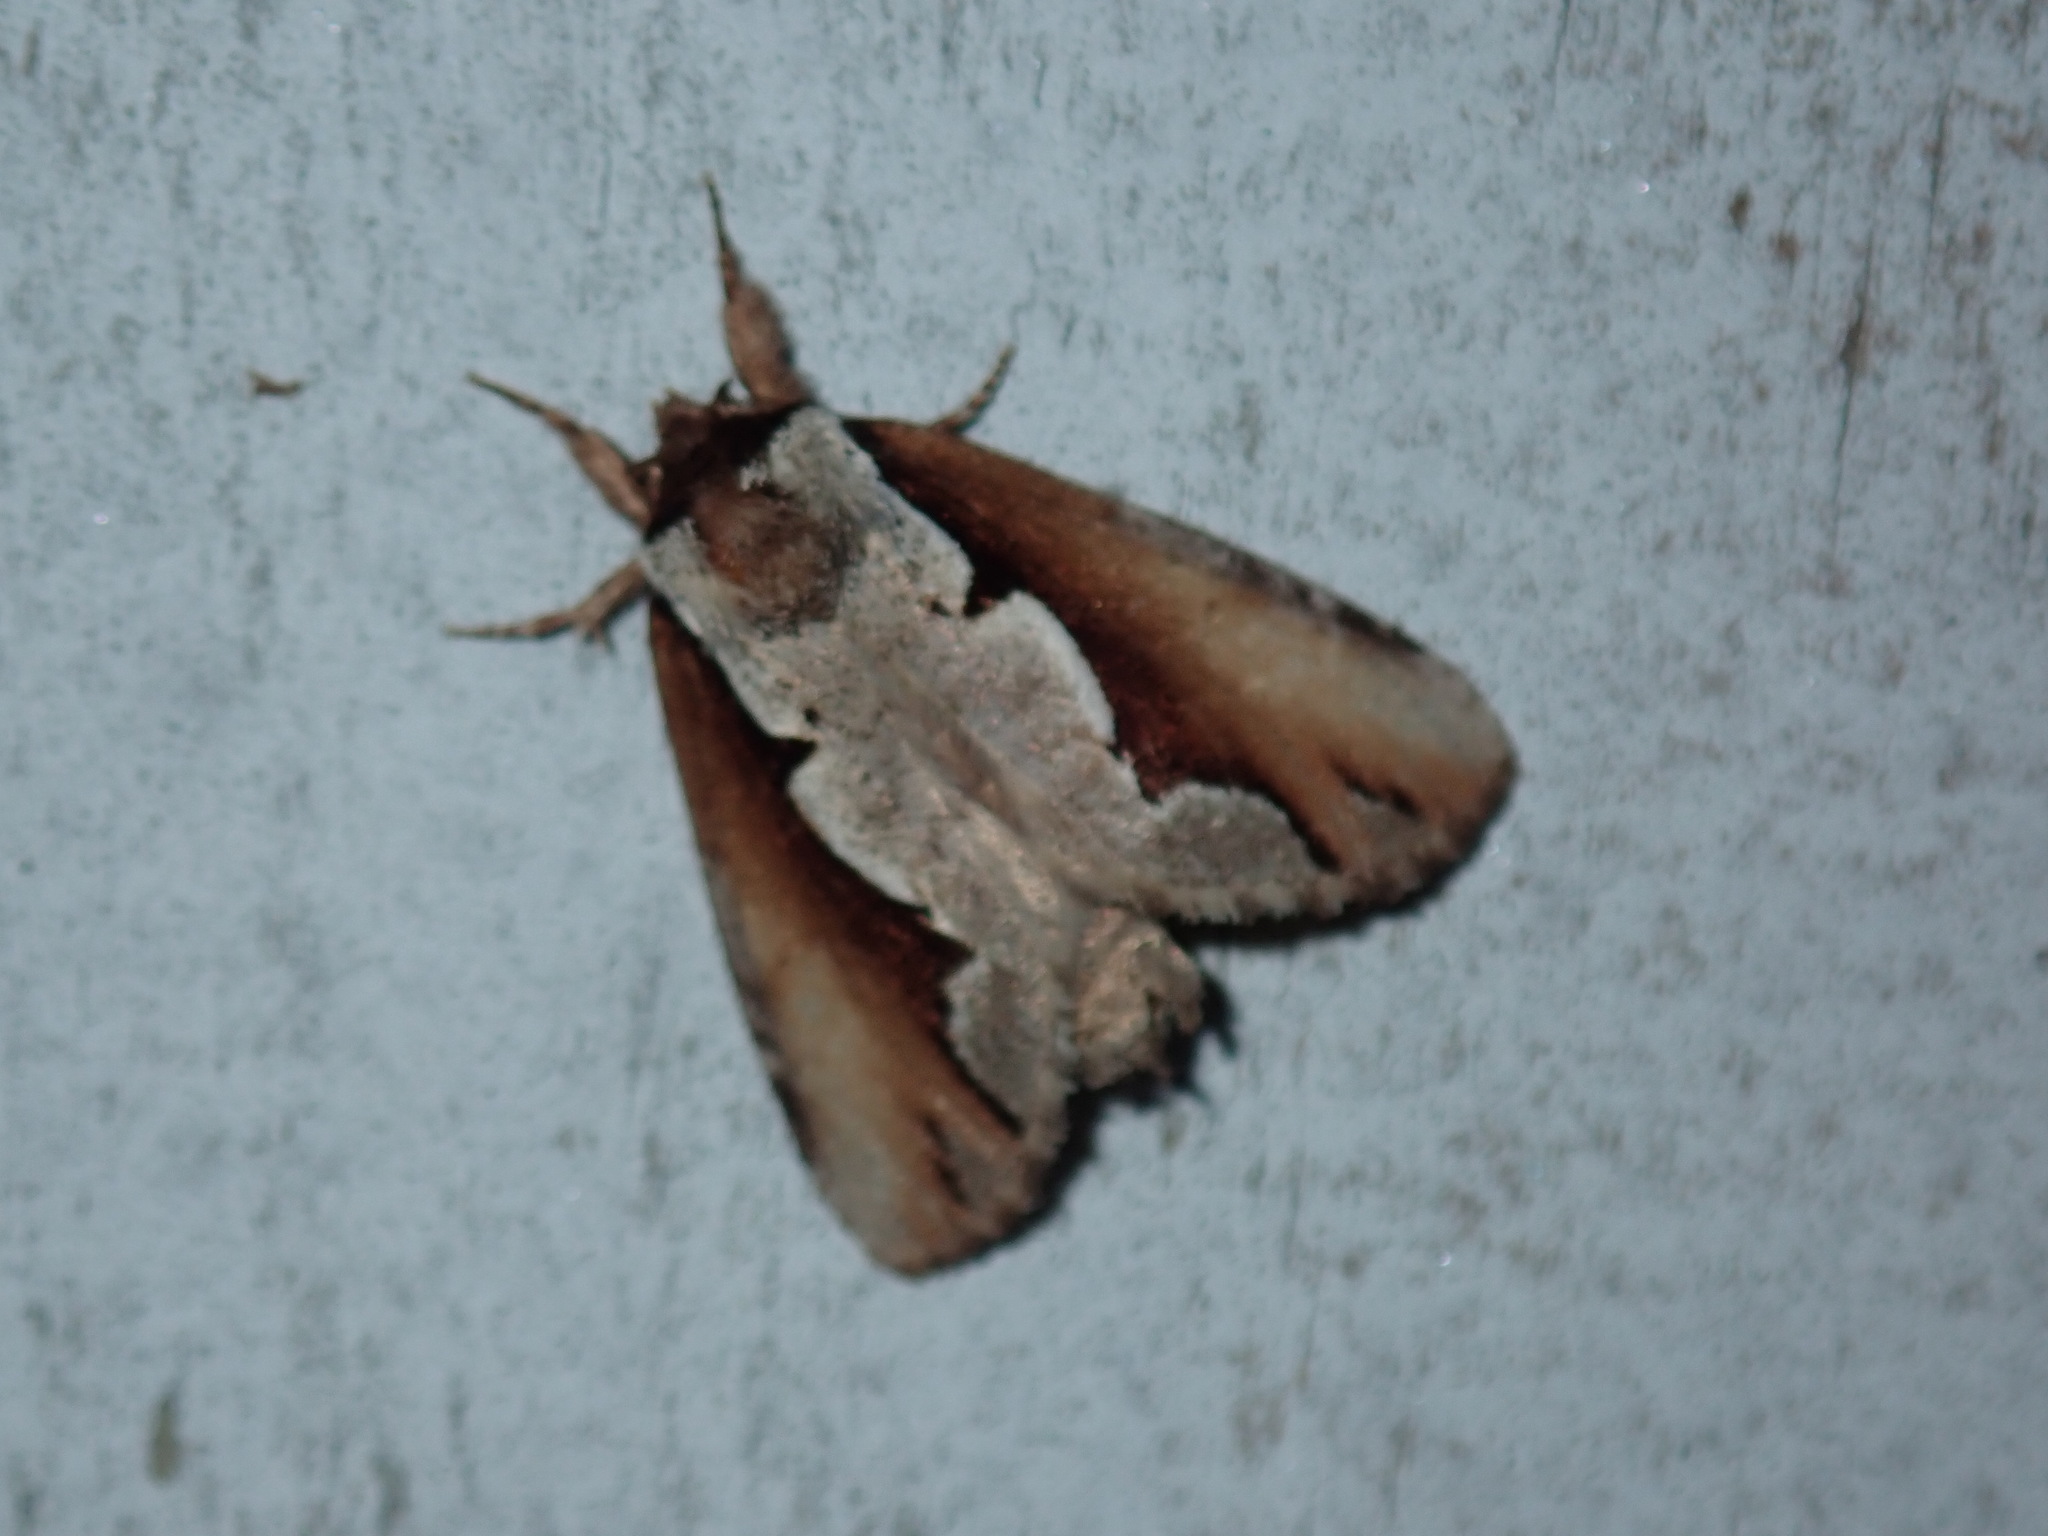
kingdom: Animalia
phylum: Arthropoda
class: Insecta
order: Lepidoptera
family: Notodontidae
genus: Nerice
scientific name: Nerice bidentata
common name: Double-toothed prominent
